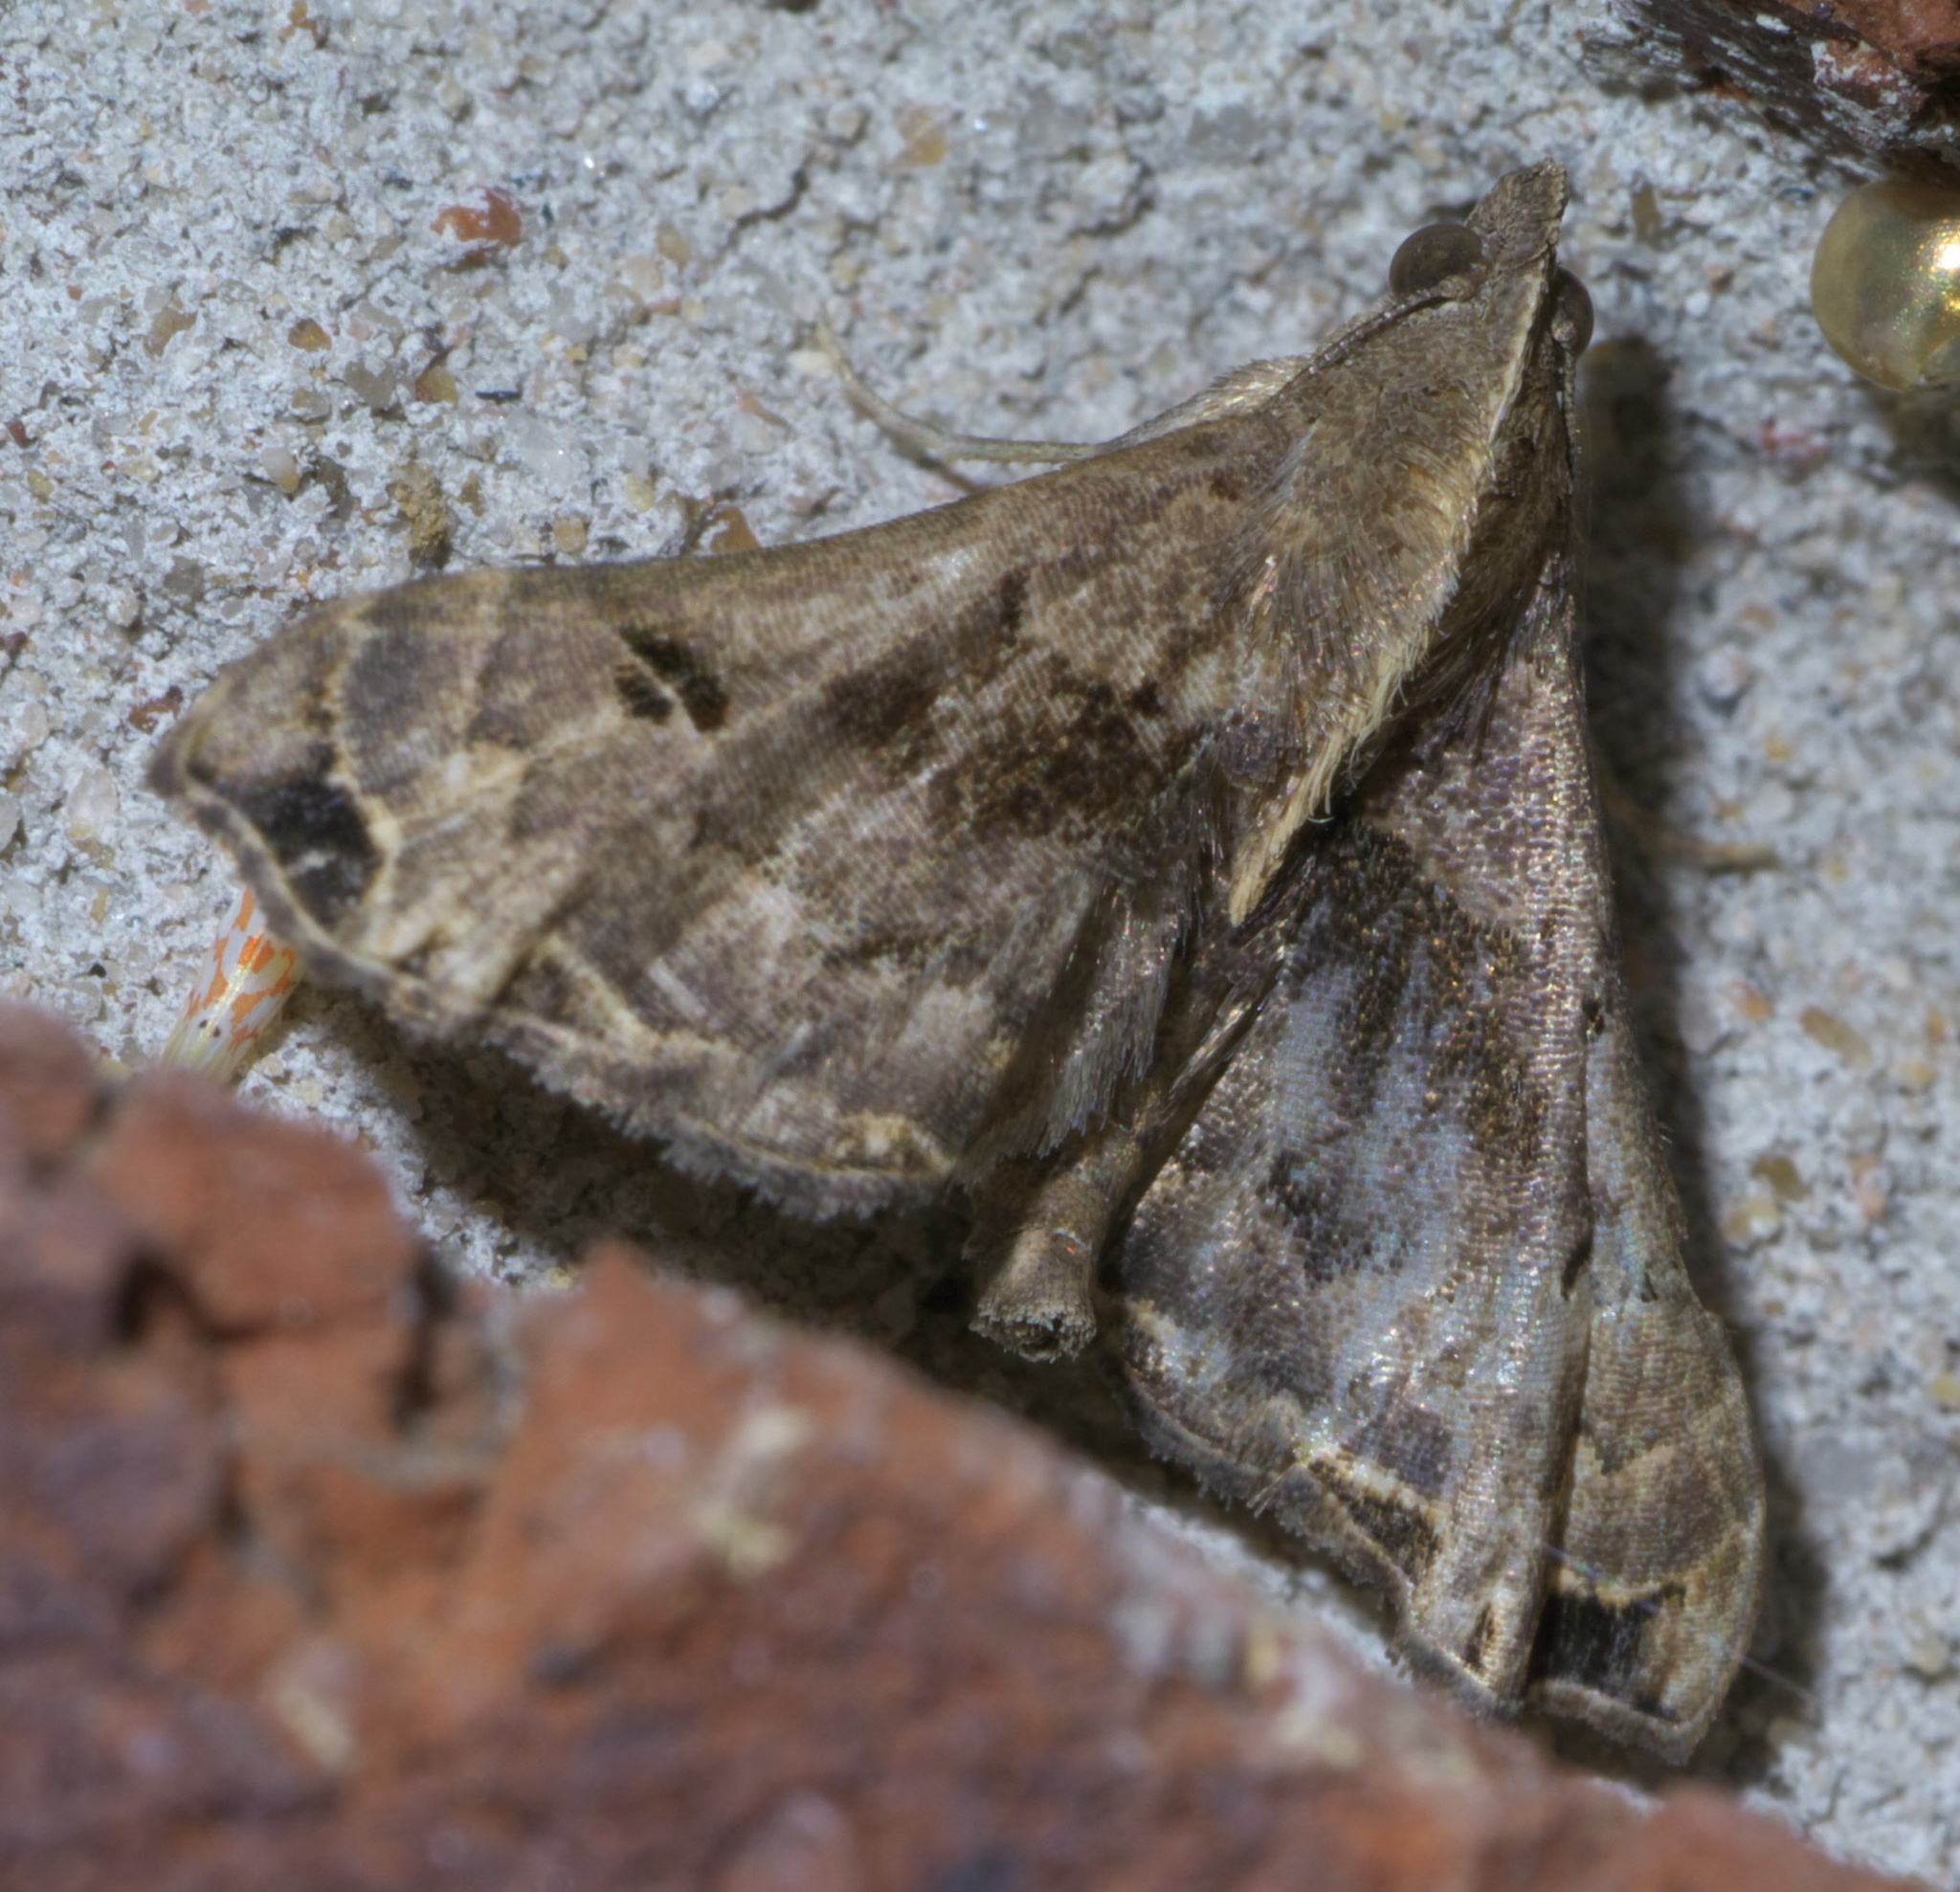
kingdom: Animalia
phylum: Arthropoda
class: Insecta
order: Lepidoptera
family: Erebidae
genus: Palthis
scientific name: Palthis asopialis
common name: Faint-spotted palthis moth
